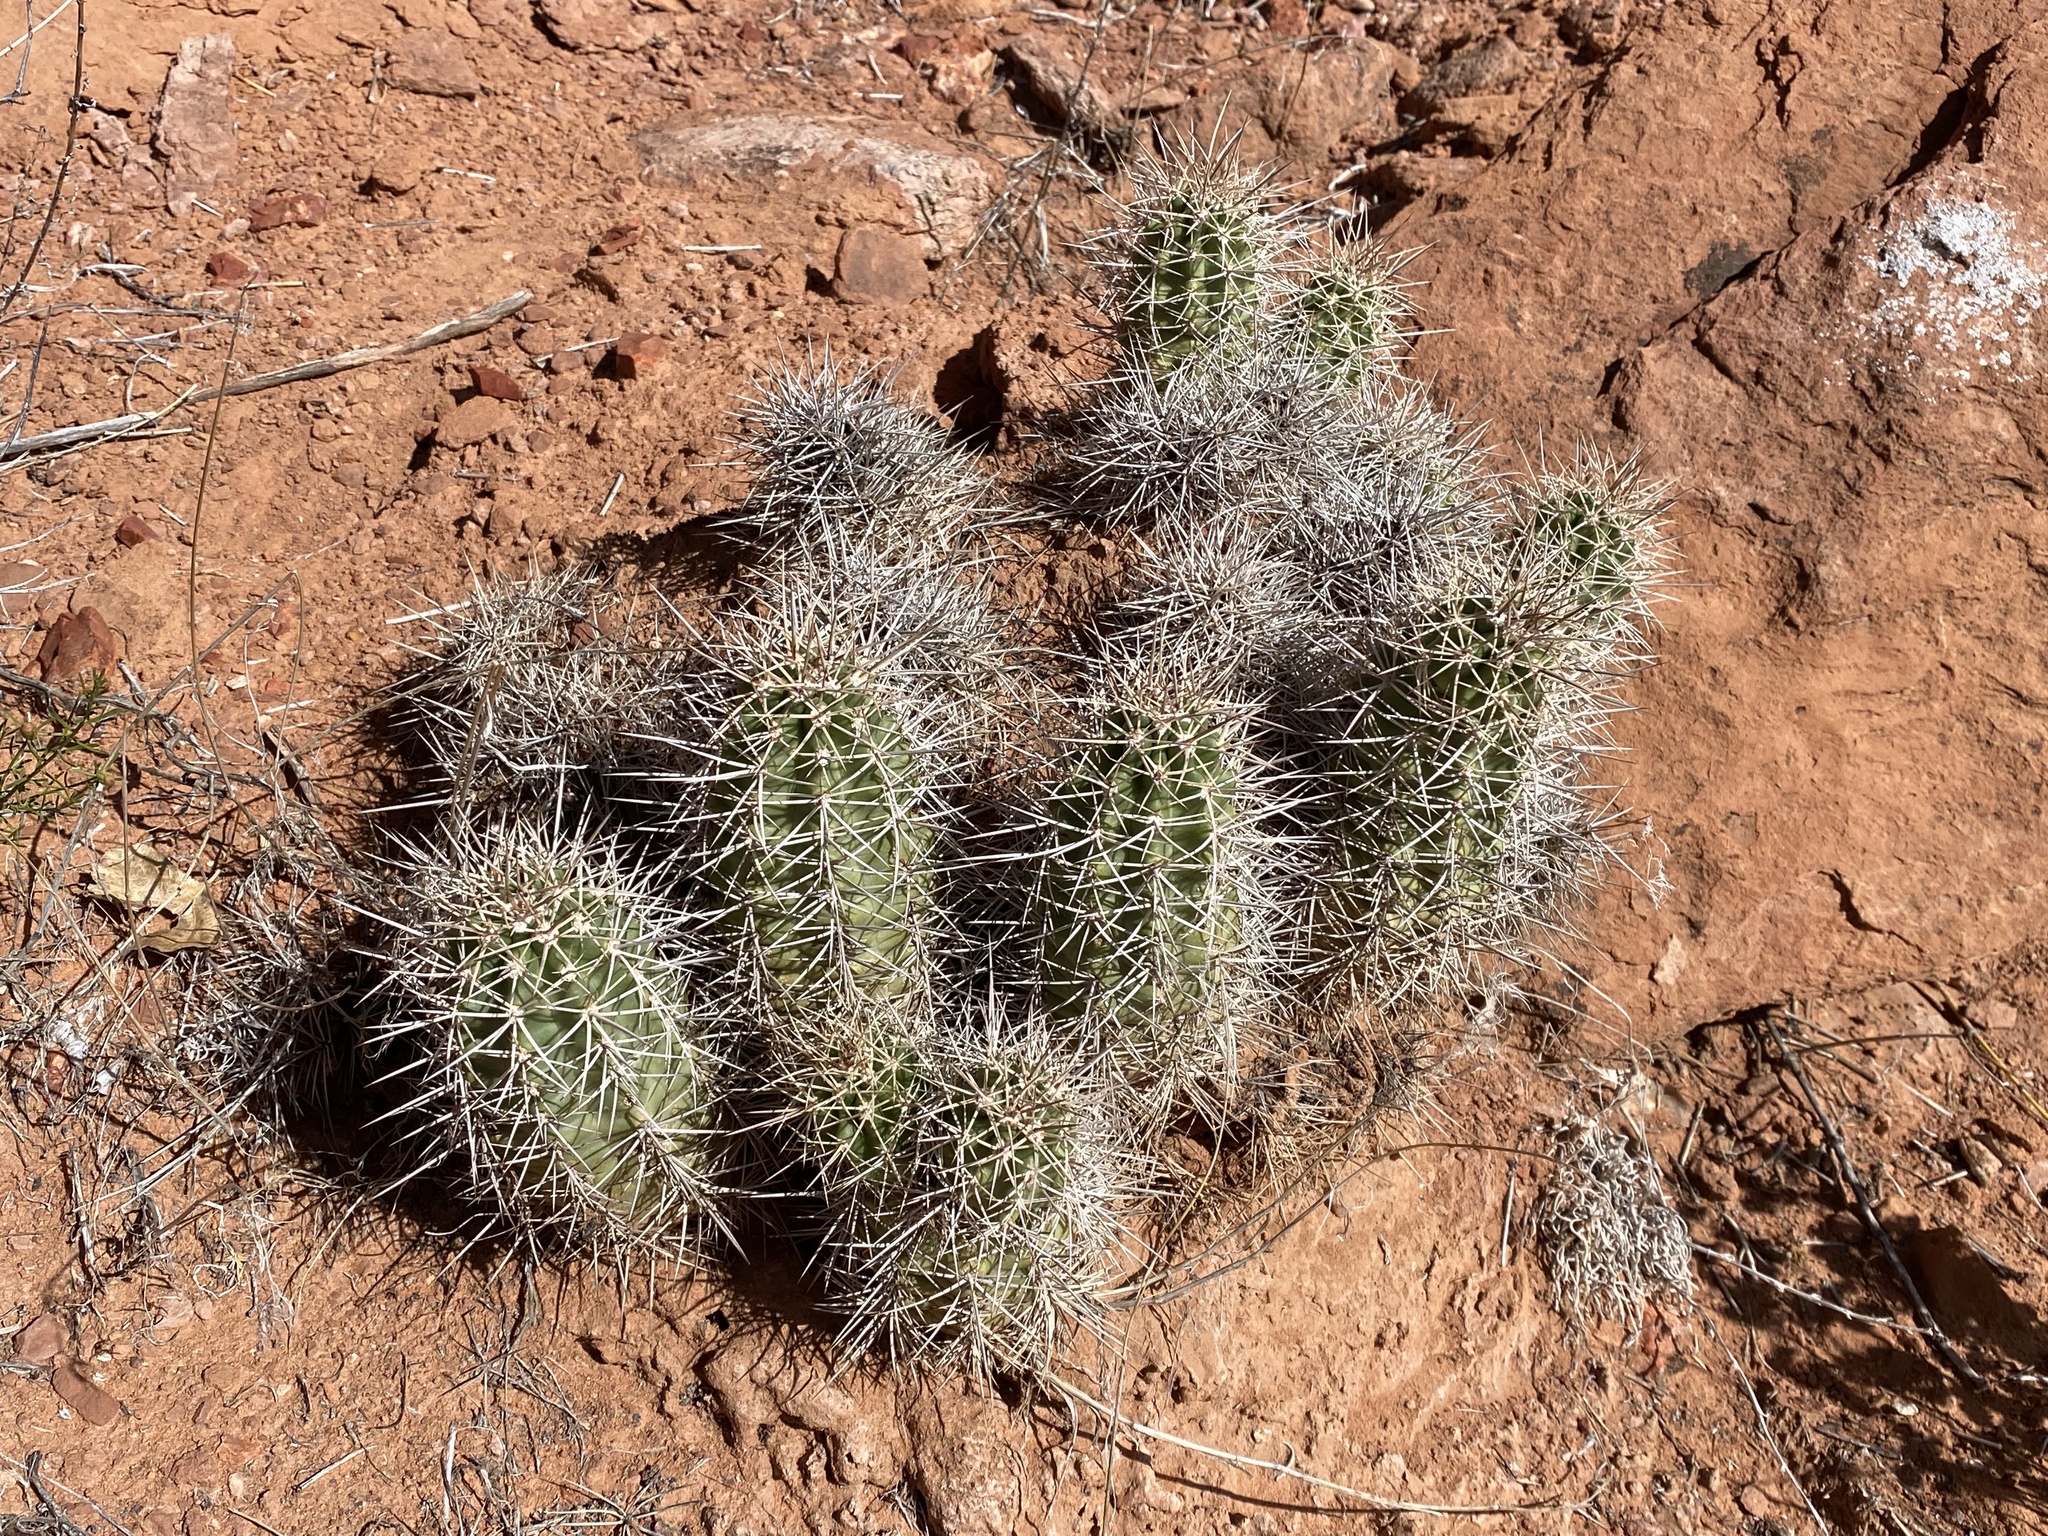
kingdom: Plantae
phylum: Tracheophyta
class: Magnoliopsida
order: Caryophyllales
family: Cactaceae
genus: Echinocereus
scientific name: Echinocereus triglochidiatus
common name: Claretcup hedgehog
